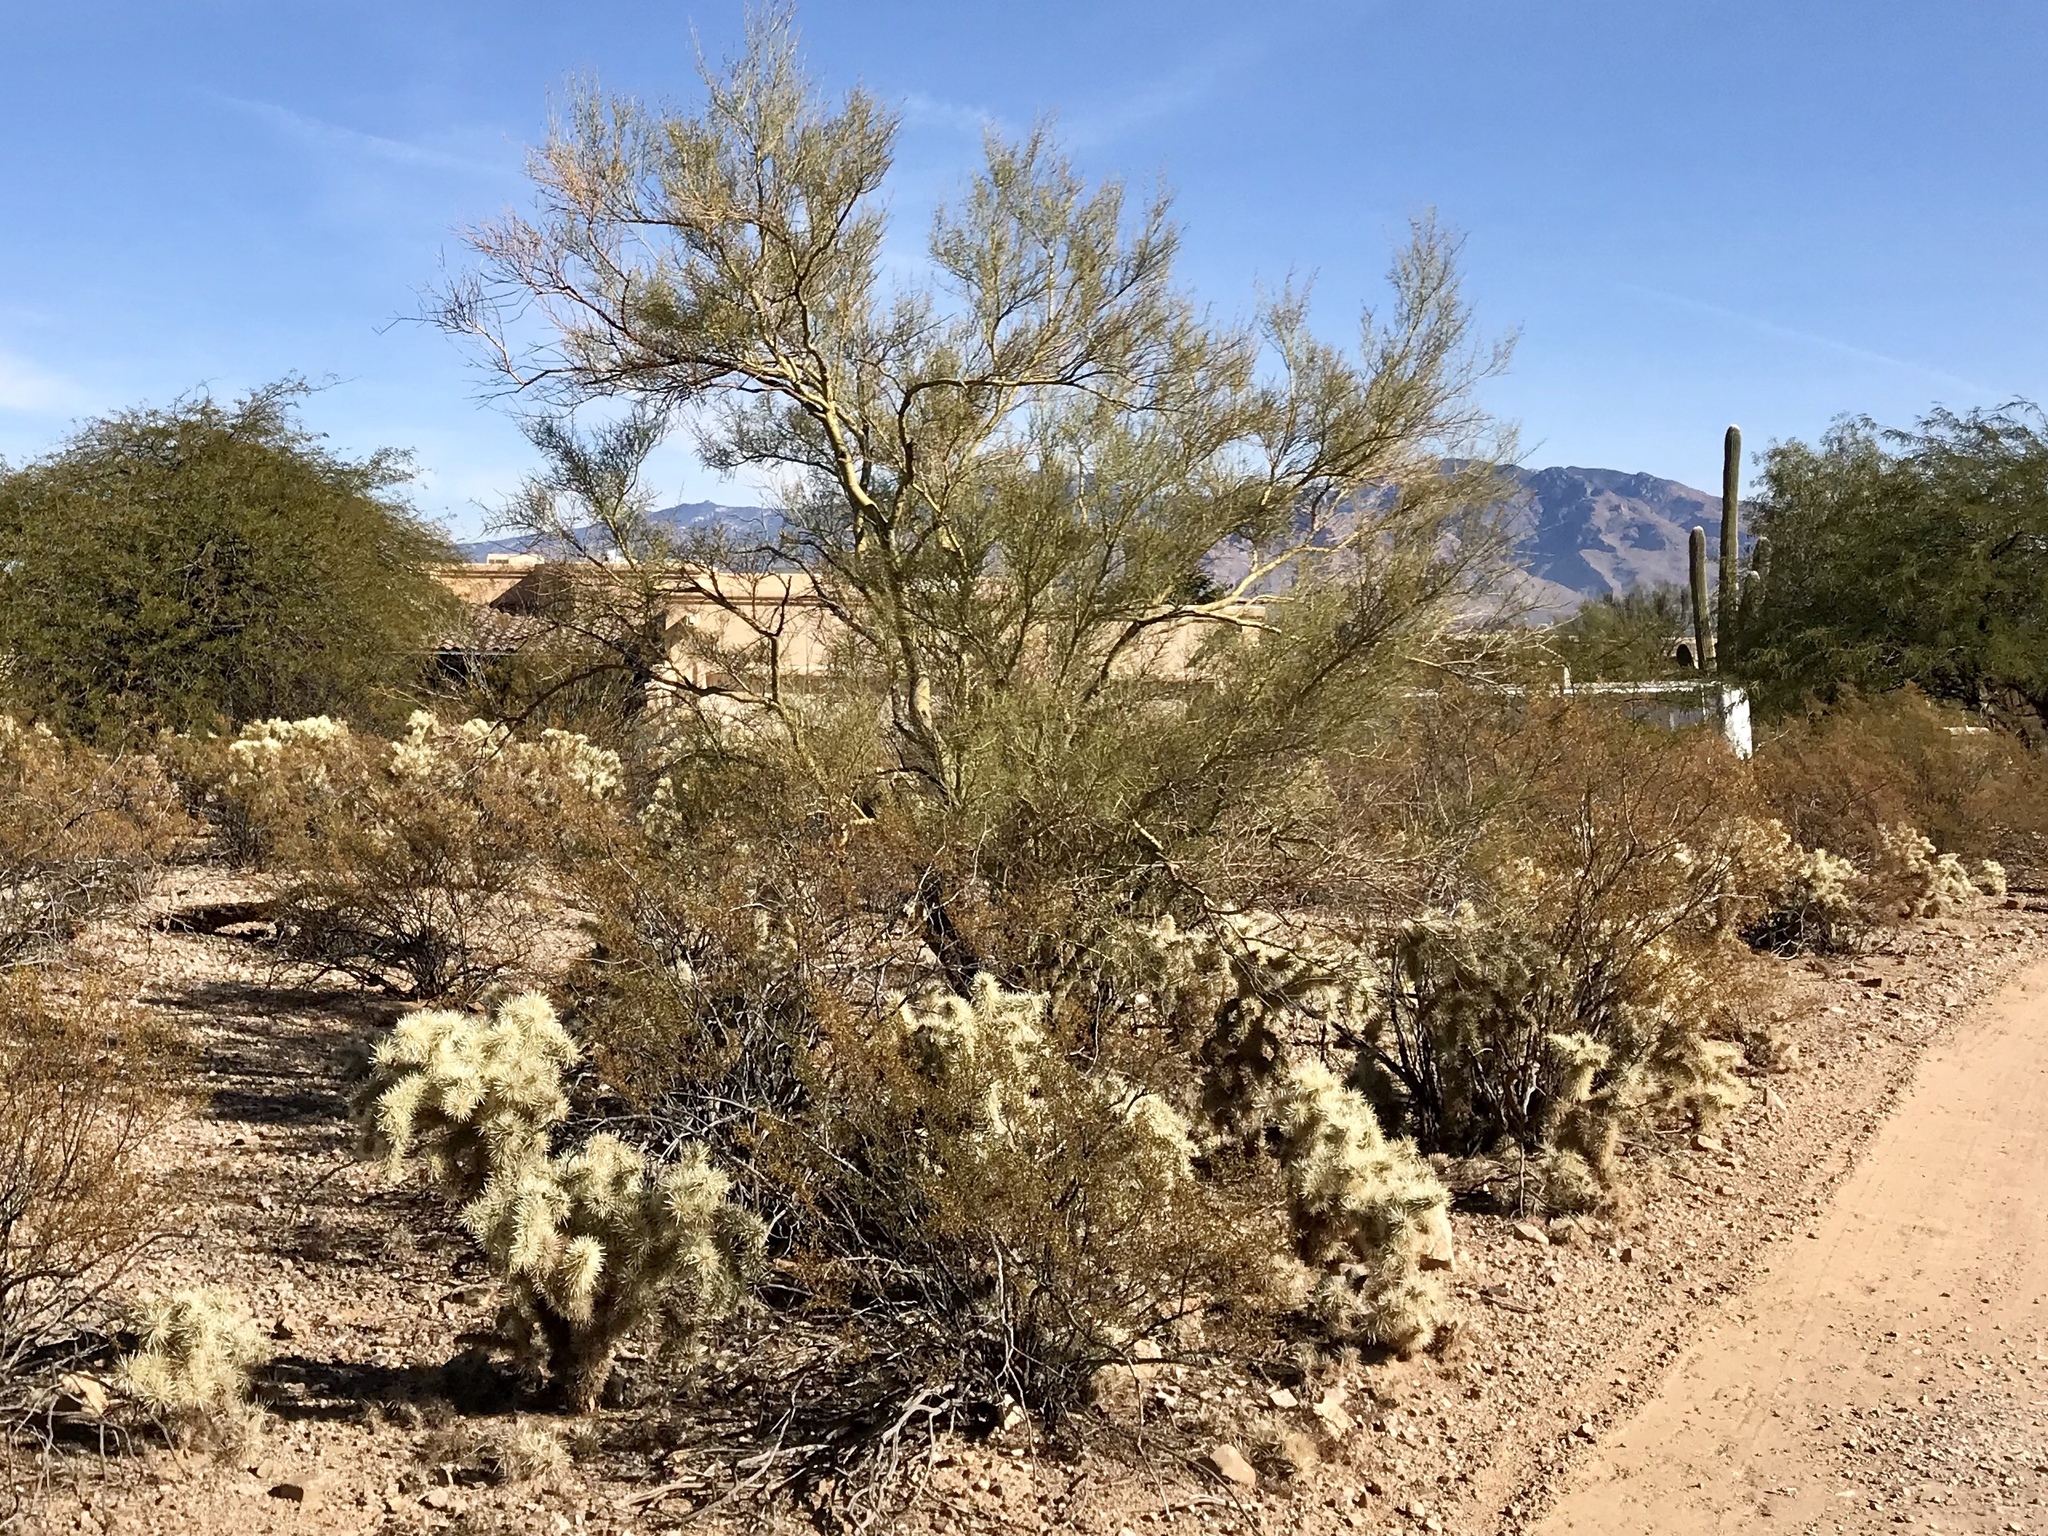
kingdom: Plantae
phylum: Tracheophyta
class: Magnoliopsida
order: Fabales
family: Fabaceae
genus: Parkinsonia
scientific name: Parkinsonia microphylla
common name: Yellow paloverde
